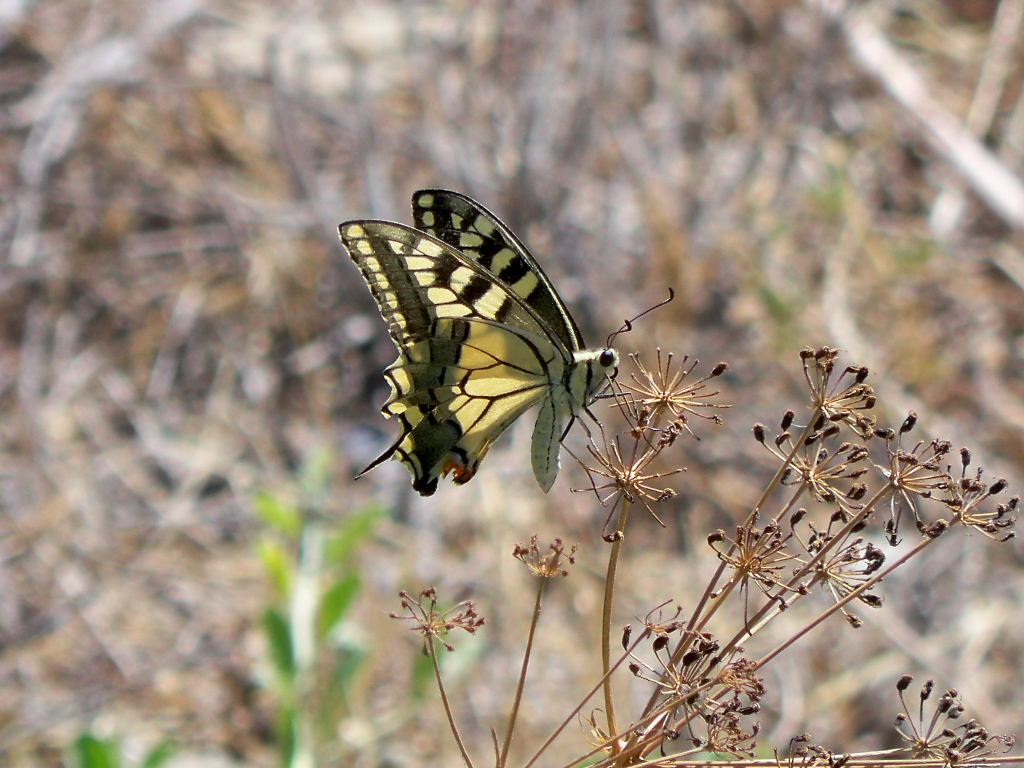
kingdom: Animalia
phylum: Arthropoda
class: Insecta
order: Lepidoptera
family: Papilionidae
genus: Papilio
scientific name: Papilio machaon
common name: Swallowtail
